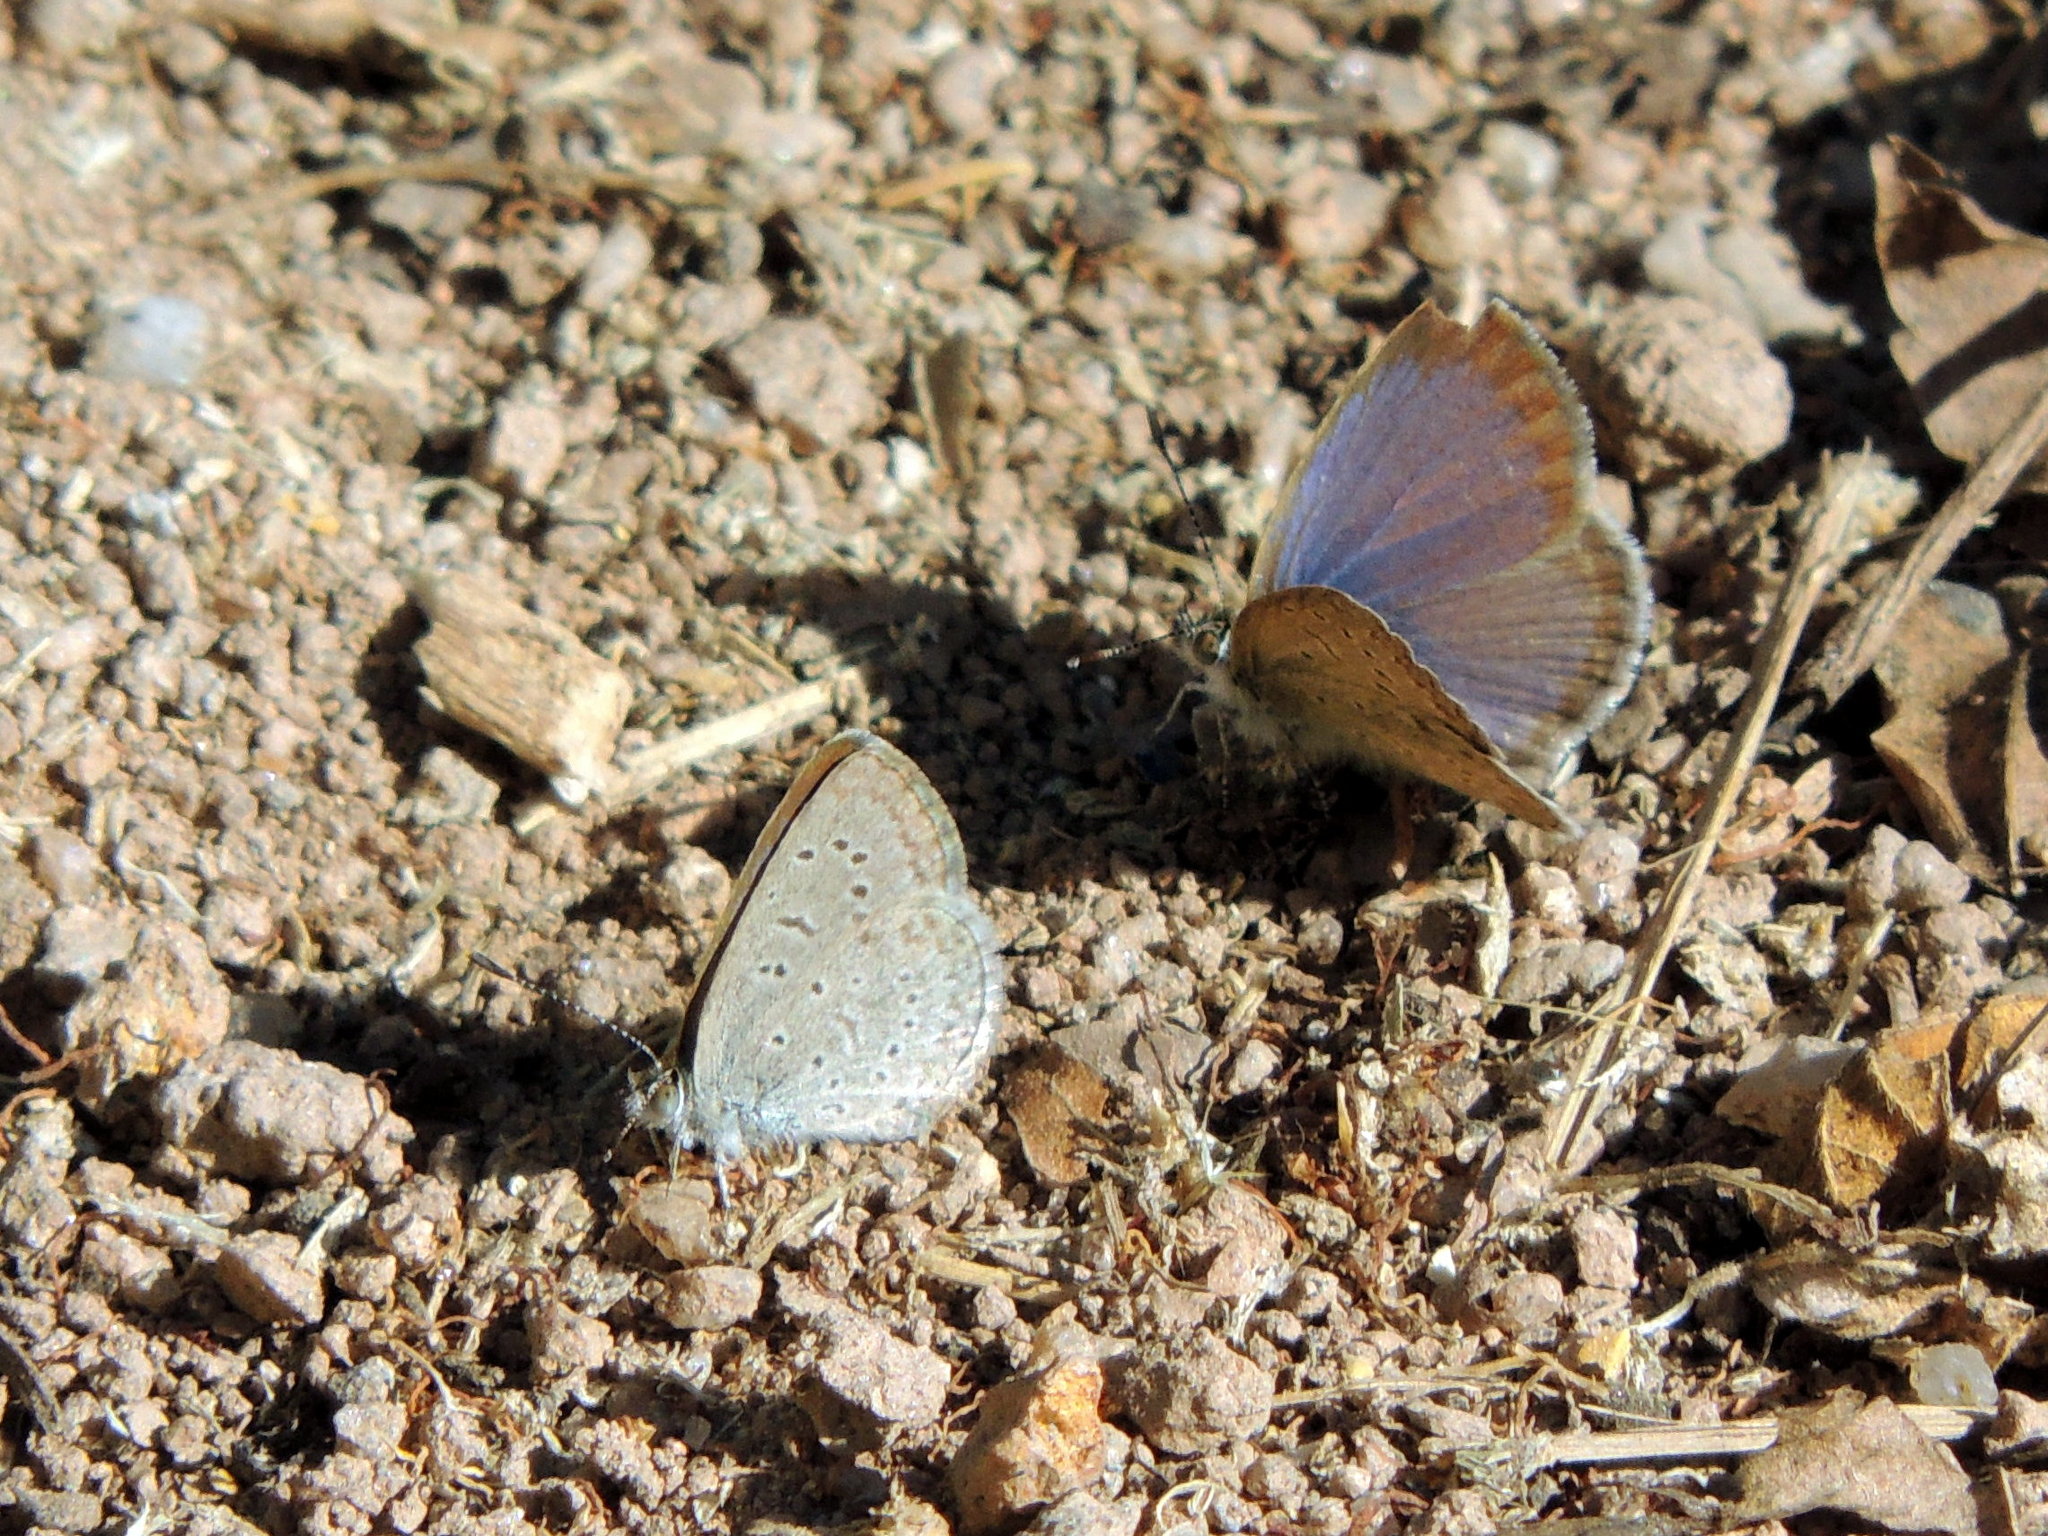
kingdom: Animalia
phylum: Arthropoda
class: Insecta
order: Lepidoptera
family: Lycaenidae
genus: Zizeeria
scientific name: Zizeeria knysna
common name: African grass blue
